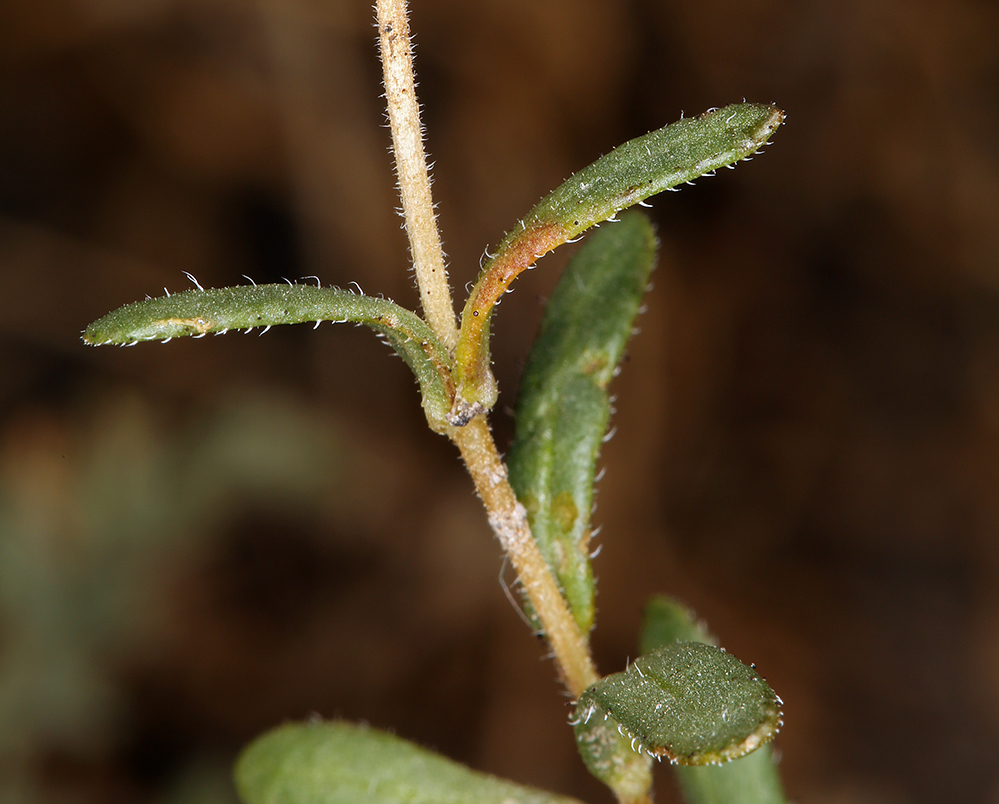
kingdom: Plantae
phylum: Tracheophyta
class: Magnoliopsida
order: Asterales
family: Asteraceae
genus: Layia
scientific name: Layia leucopappa
